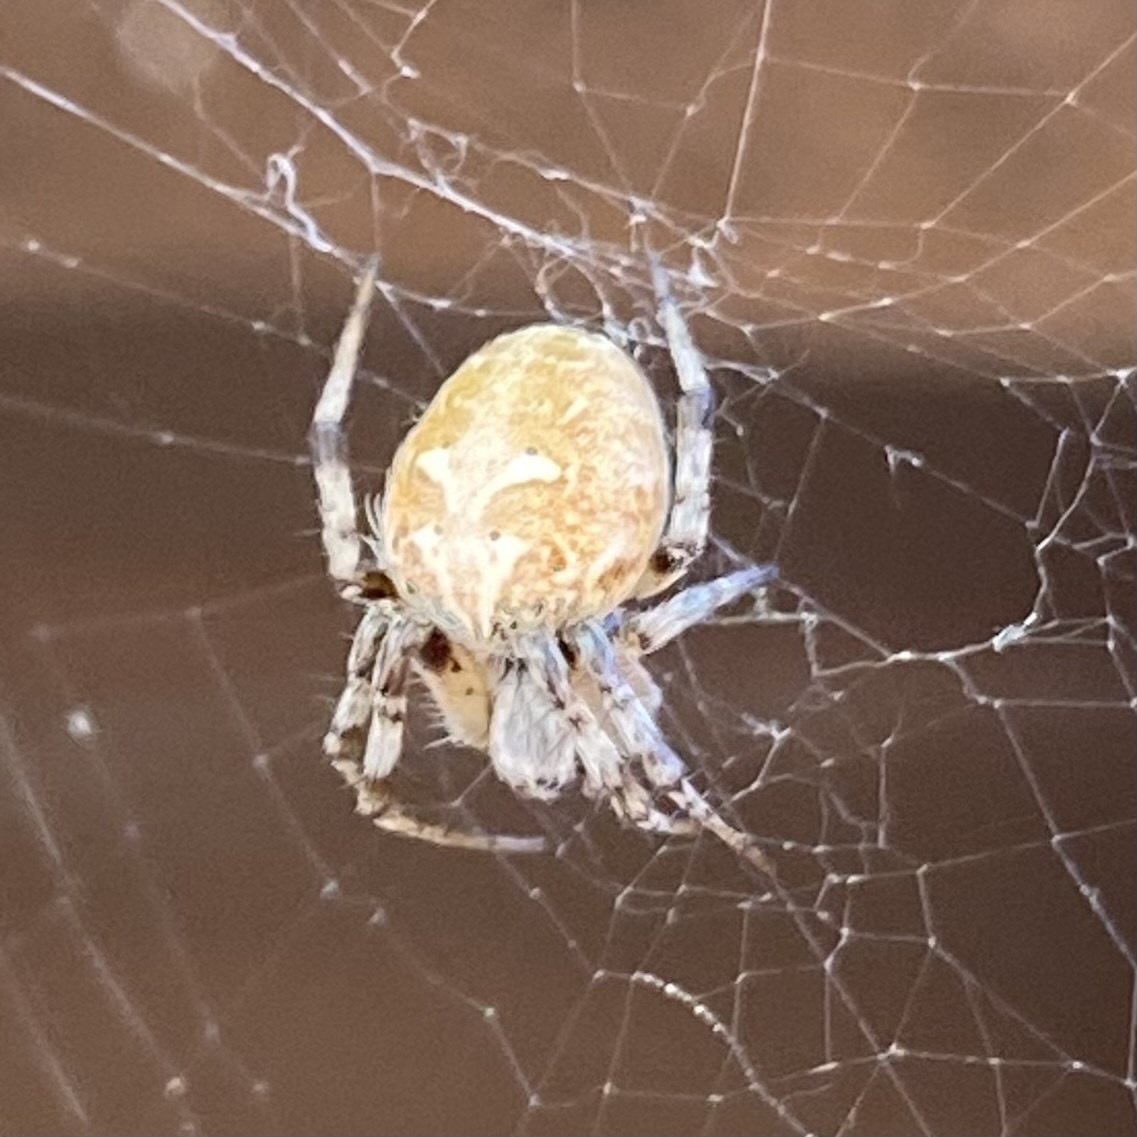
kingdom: Animalia
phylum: Arthropoda
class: Arachnida
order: Araneae
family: Araneidae
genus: Metepeira
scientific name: Metepeira
